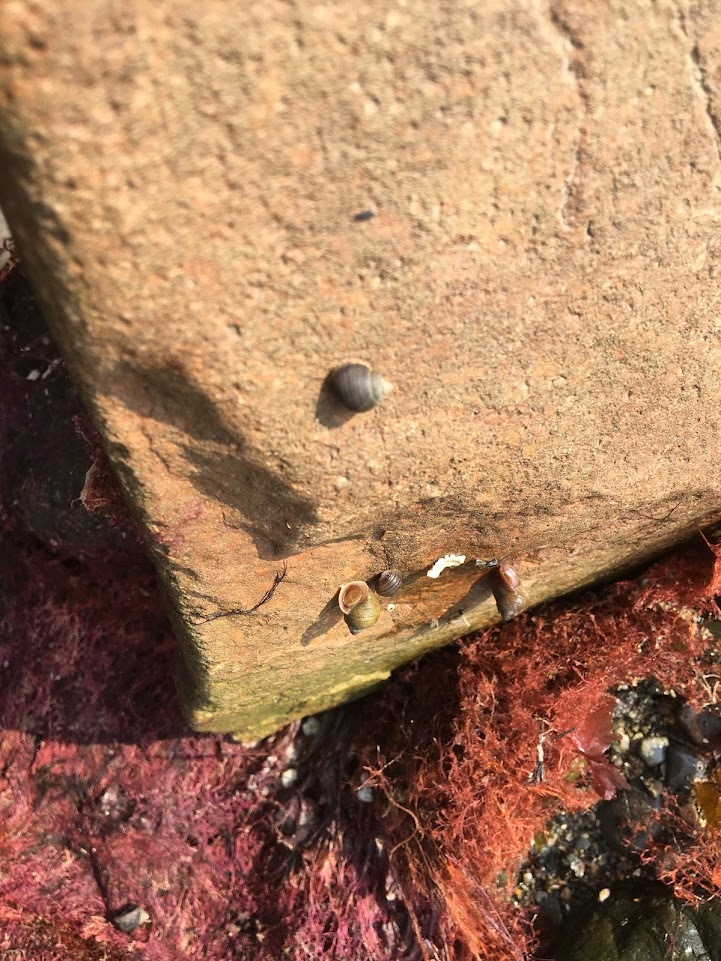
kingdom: Animalia
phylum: Mollusca
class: Gastropoda
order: Littorinimorpha
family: Littorinidae
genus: Littorina
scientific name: Littorina saxatilis
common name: Black-lined periwinkle
